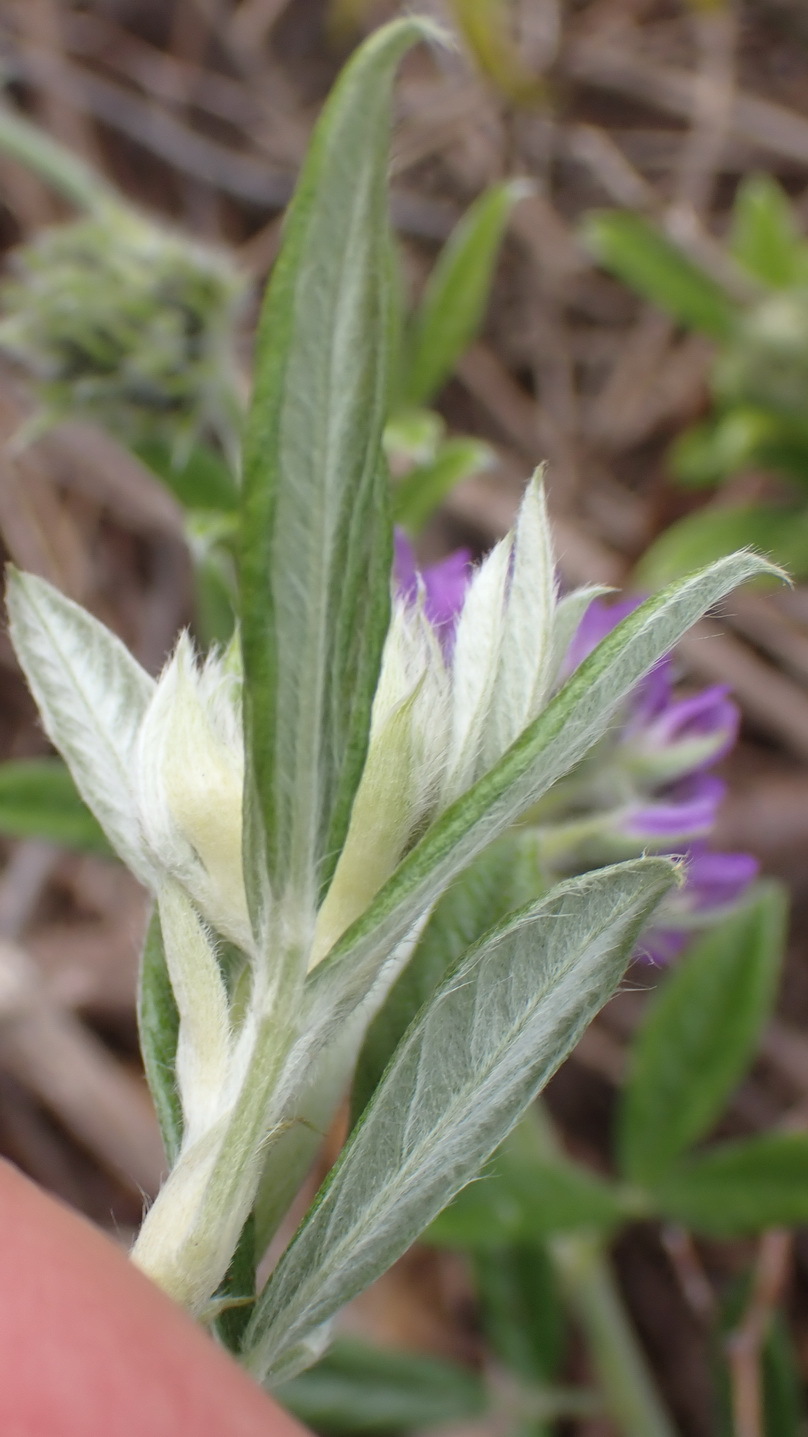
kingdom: Plantae
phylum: Tracheophyta
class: Magnoliopsida
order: Fabales
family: Fabaceae
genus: Psoralea
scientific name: Psoralea sericea
